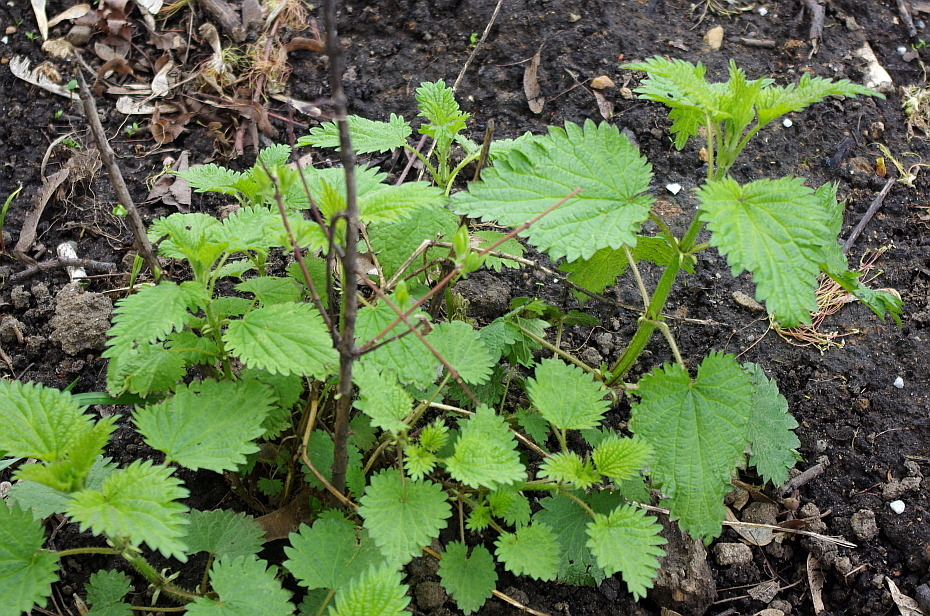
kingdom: Plantae
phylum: Tracheophyta
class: Magnoliopsida
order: Rosales
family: Urticaceae
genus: Urtica
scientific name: Urtica dioica
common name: Common nettle
